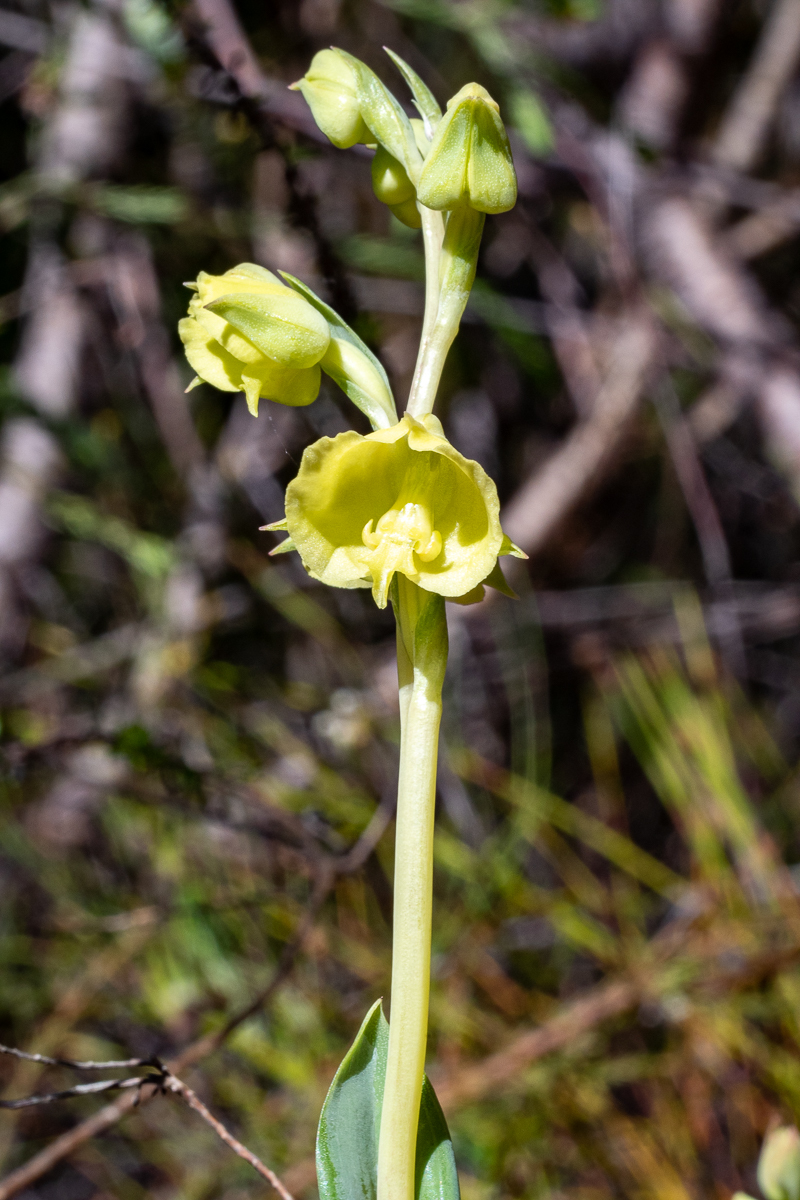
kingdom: Plantae
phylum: Tracheophyta
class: Liliopsida
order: Asparagales
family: Orchidaceae
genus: Pterygodium
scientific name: Pterygodium catholicum
